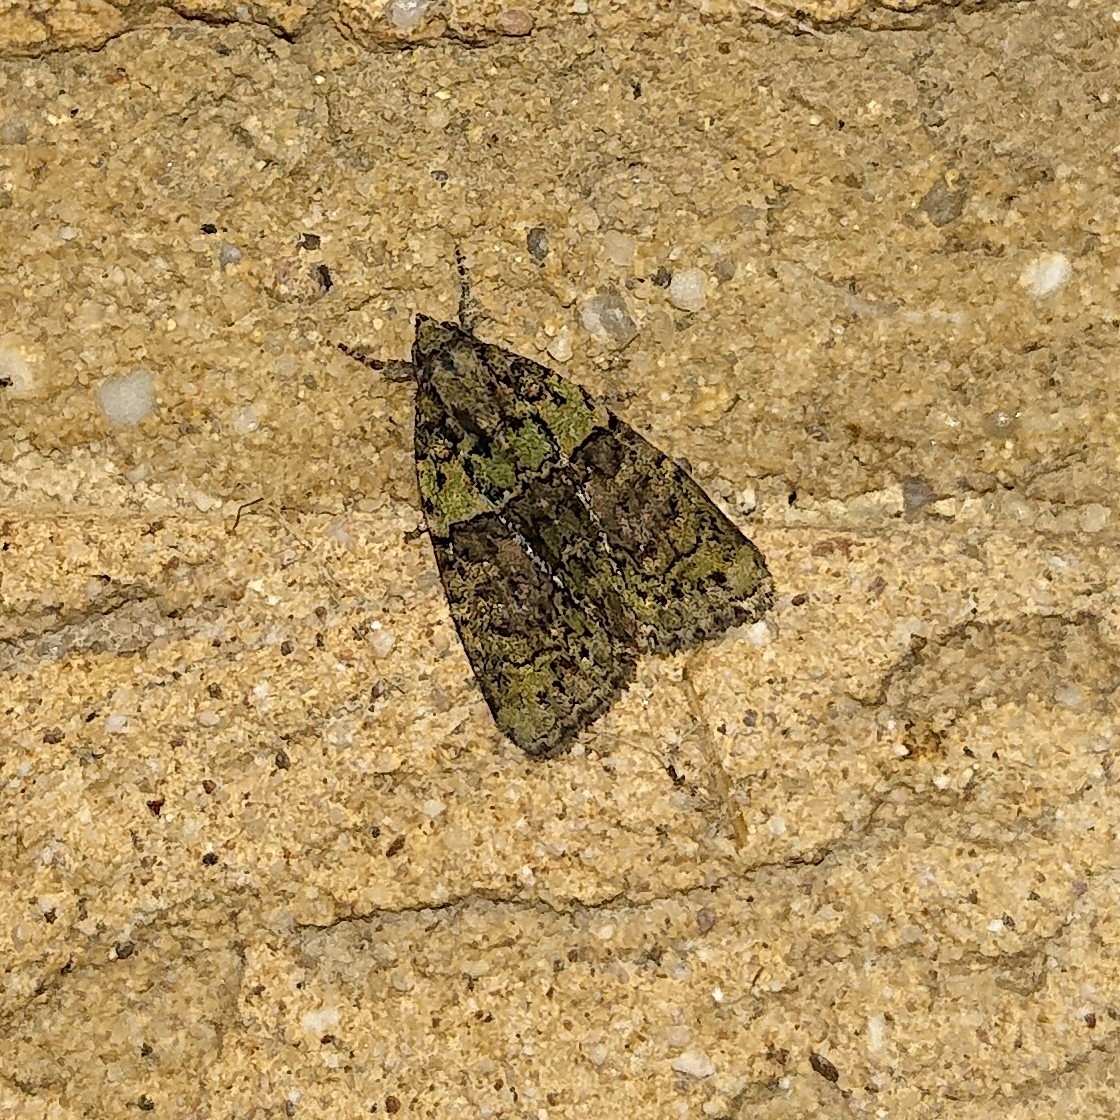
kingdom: Animalia
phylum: Arthropoda
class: Insecta
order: Lepidoptera
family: Noctuidae
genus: Cryphia
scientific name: Cryphia algae
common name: Tree-lichen beauty
